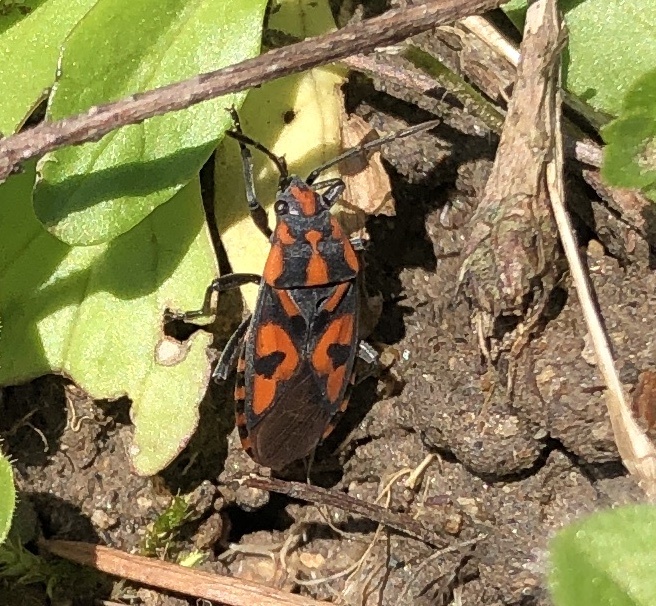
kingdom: Animalia
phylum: Arthropoda
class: Insecta
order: Hemiptera
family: Lygaeidae
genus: Spilostethus
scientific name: Spilostethus saxatilis
